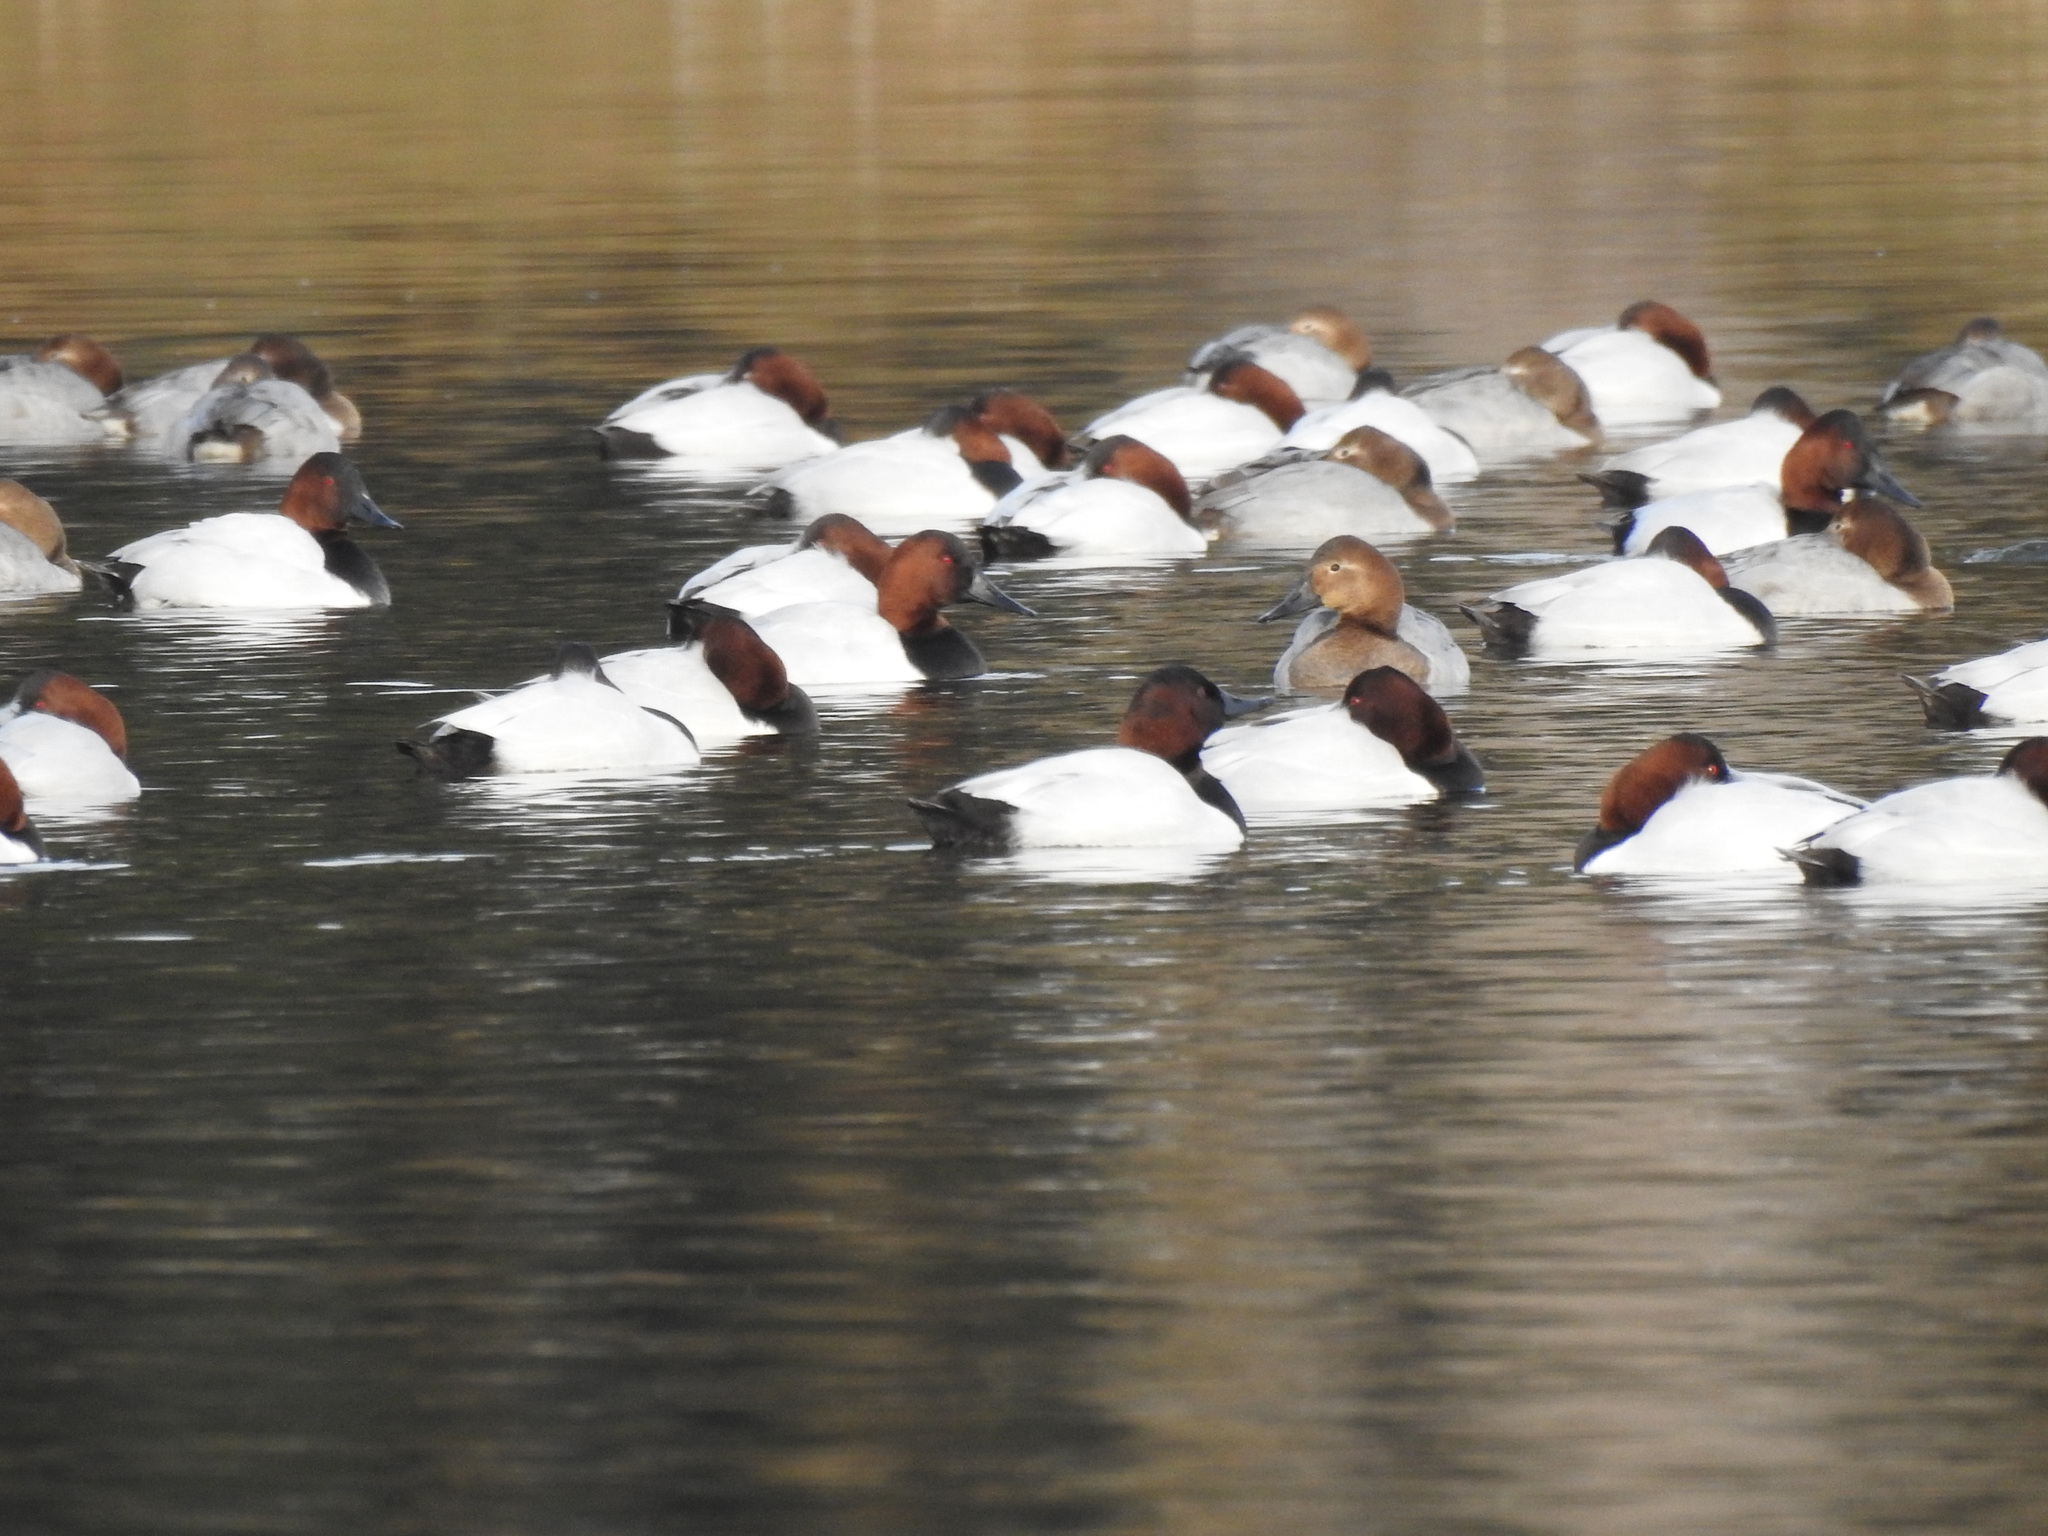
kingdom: Animalia
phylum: Chordata
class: Aves
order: Anseriformes
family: Anatidae
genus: Aythya
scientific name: Aythya valisineria
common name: Canvasback
